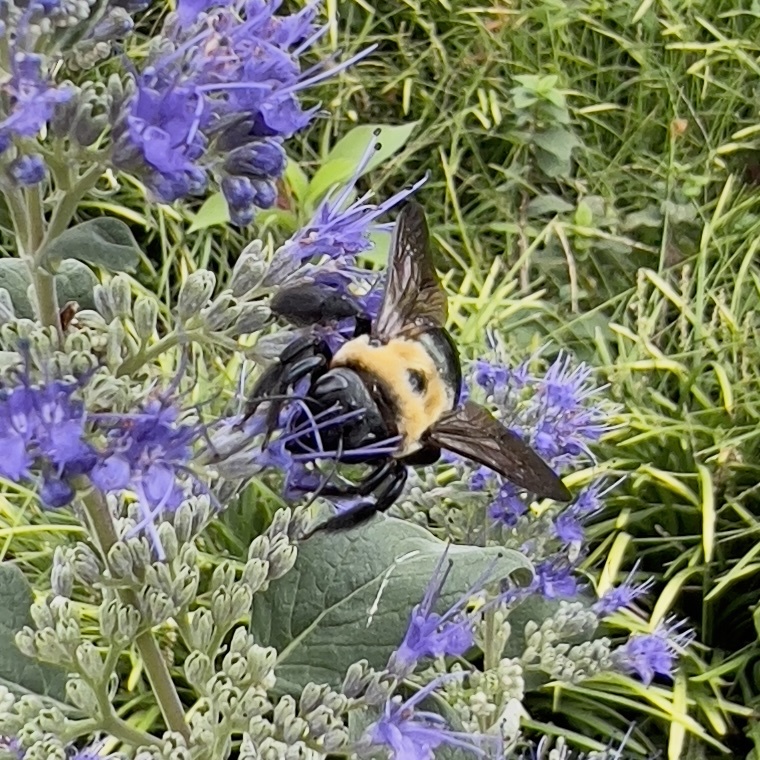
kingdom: Animalia
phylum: Arthropoda
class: Insecta
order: Hymenoptera
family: Apidae
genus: Xylocopa
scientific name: Xylocopa virginica
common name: Carpenter bee
